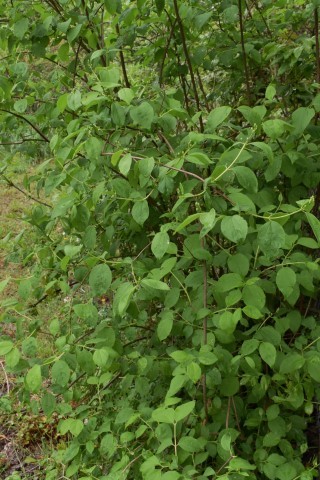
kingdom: Plantae
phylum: Tracheophyta
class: Magnoliopsida
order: Cornales
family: Hydrangeaceae
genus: Philadelphus
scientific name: Philadelphus lewisii
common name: Lewis's mock orange
